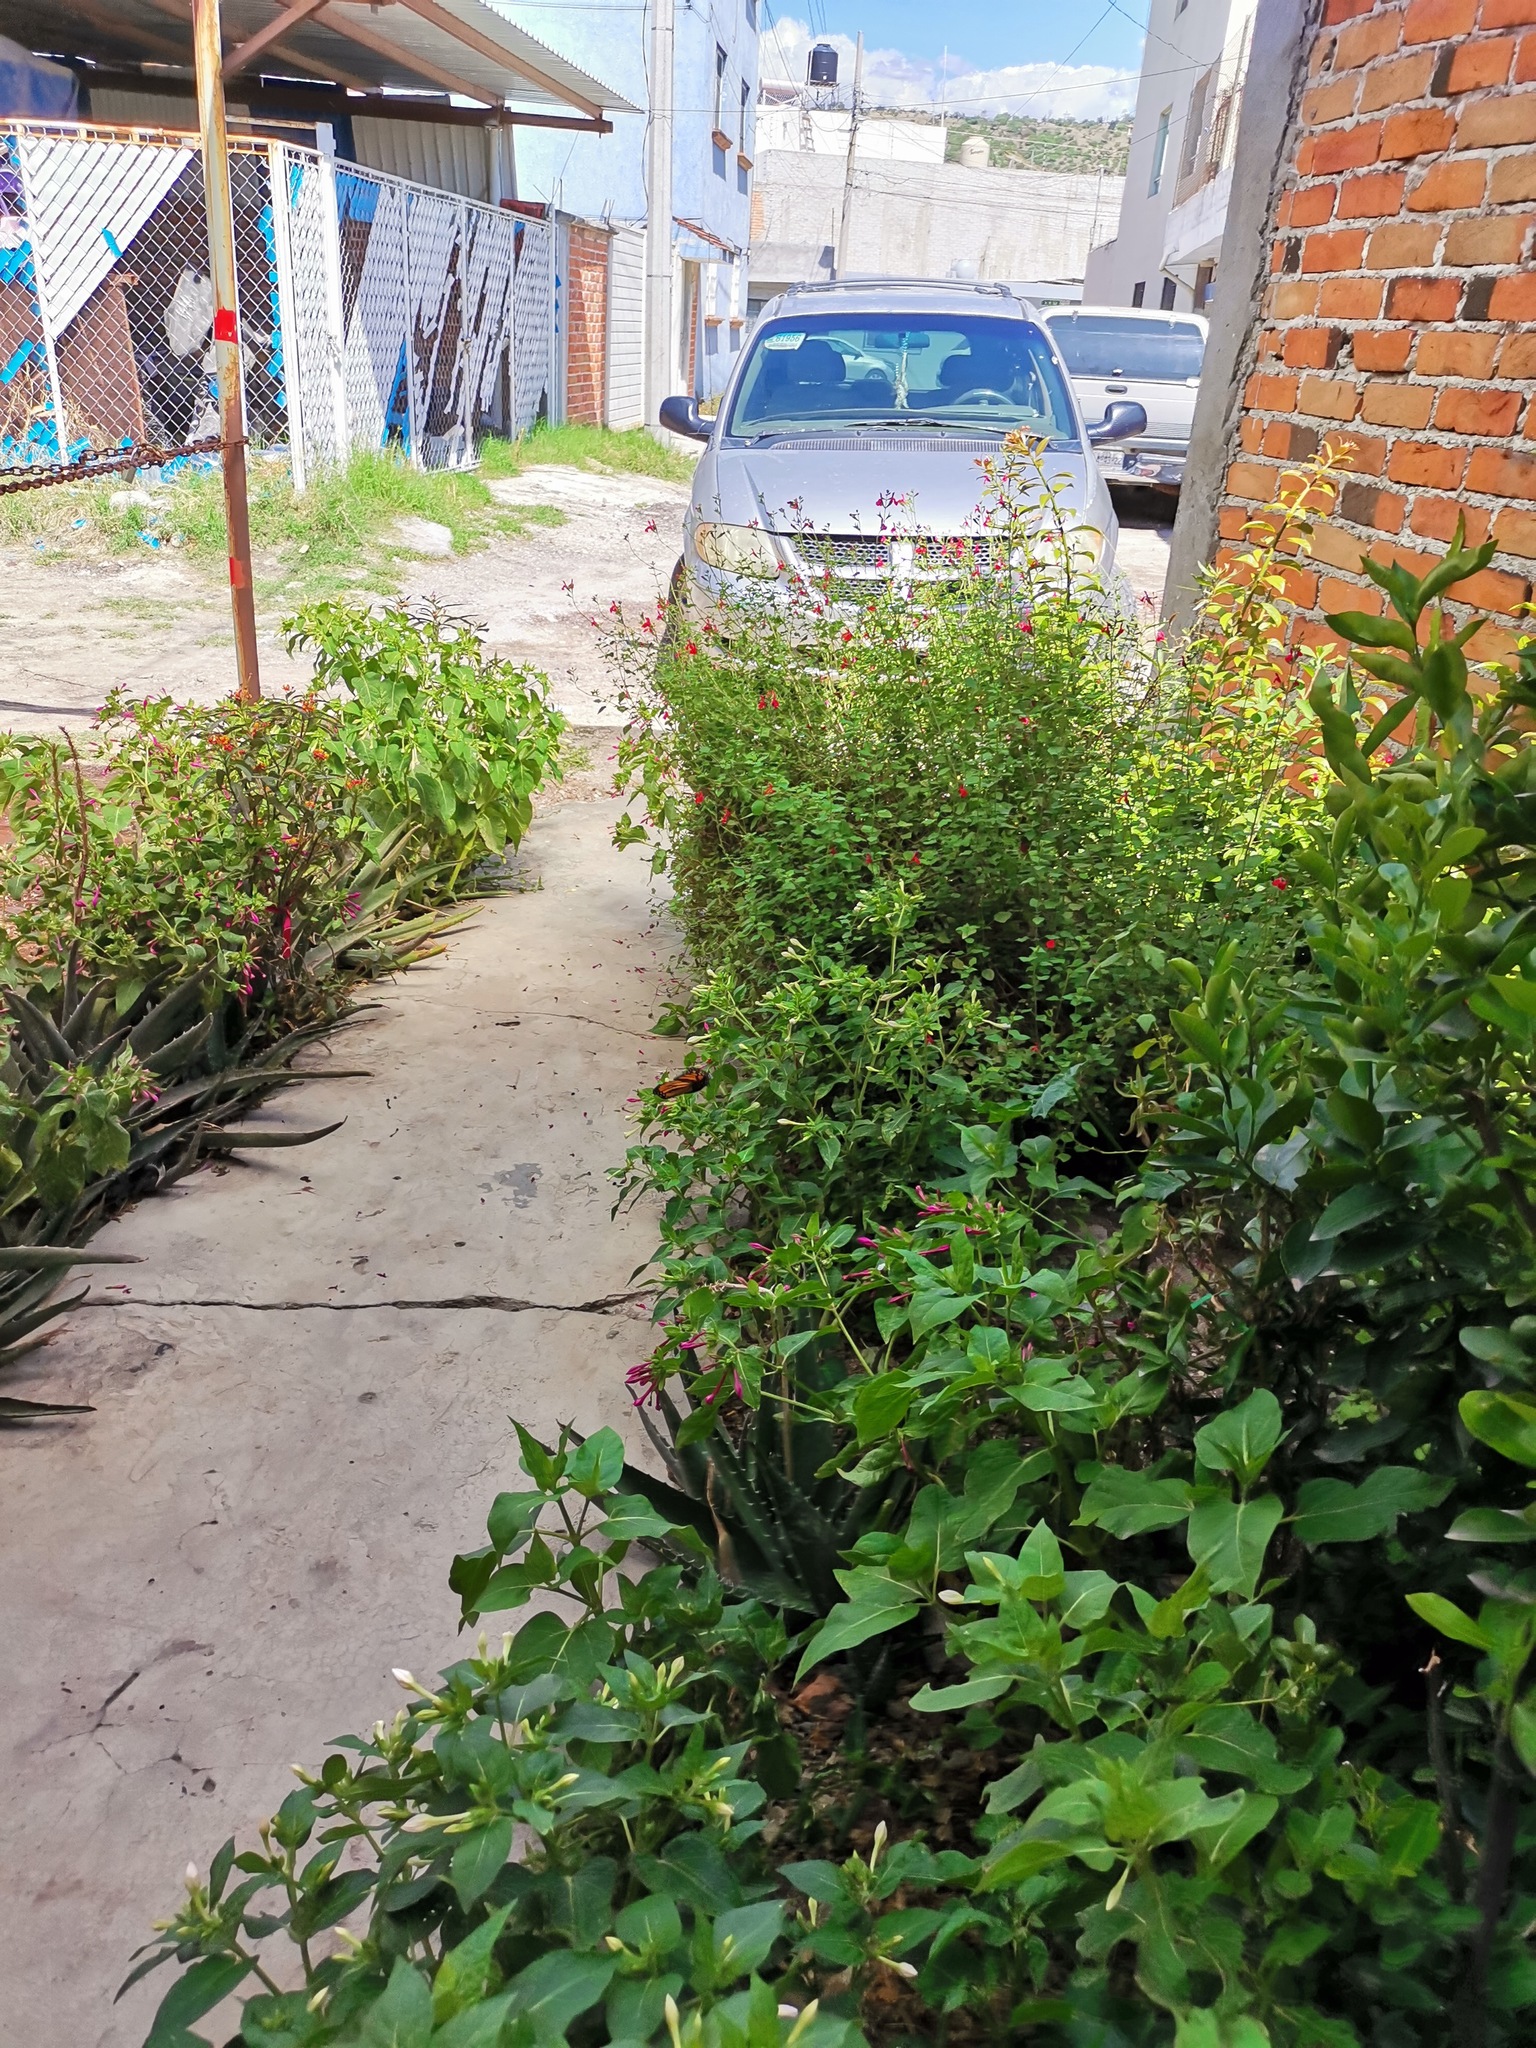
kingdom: Animalia
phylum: Arthropoda
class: Insecta
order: Lepidoptera
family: Nymphalidae
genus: Danaus
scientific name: Danaus plexippus
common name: Monarch
